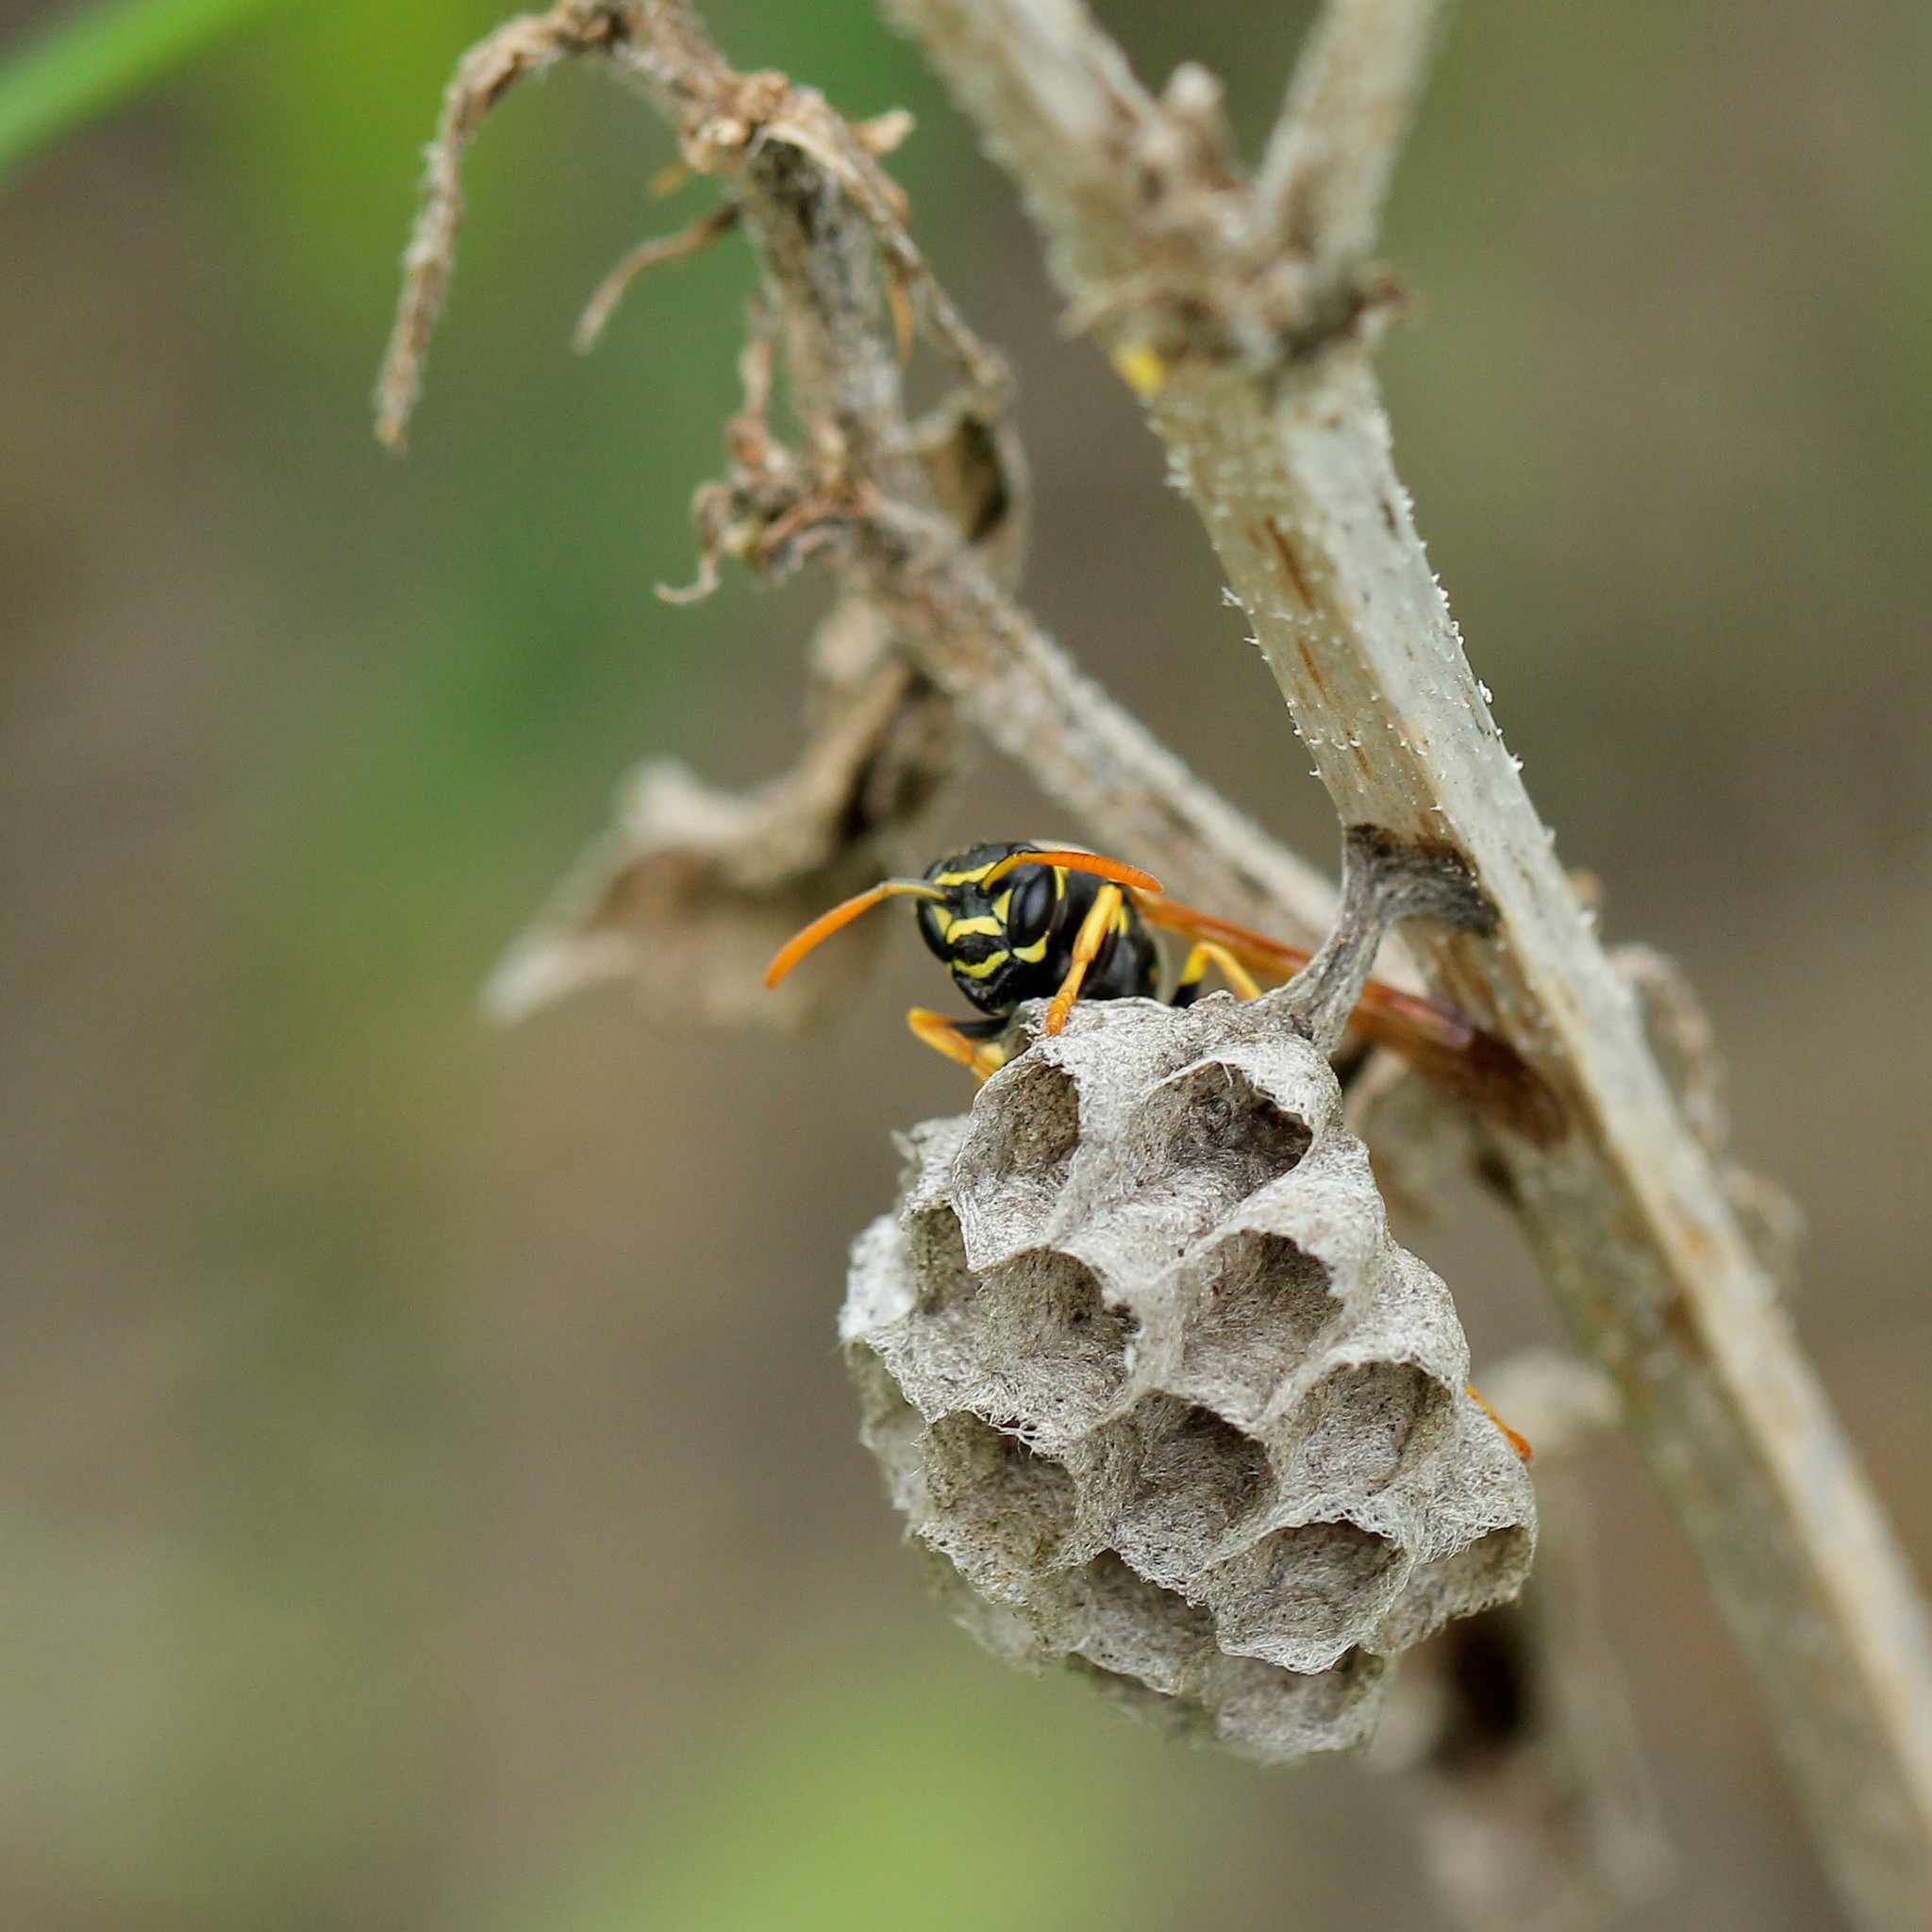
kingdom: Animalia
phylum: Arthropoda
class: Insecta
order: Hymenoptera
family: Eumenidae
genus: Polistes
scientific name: Polistes nimpha
